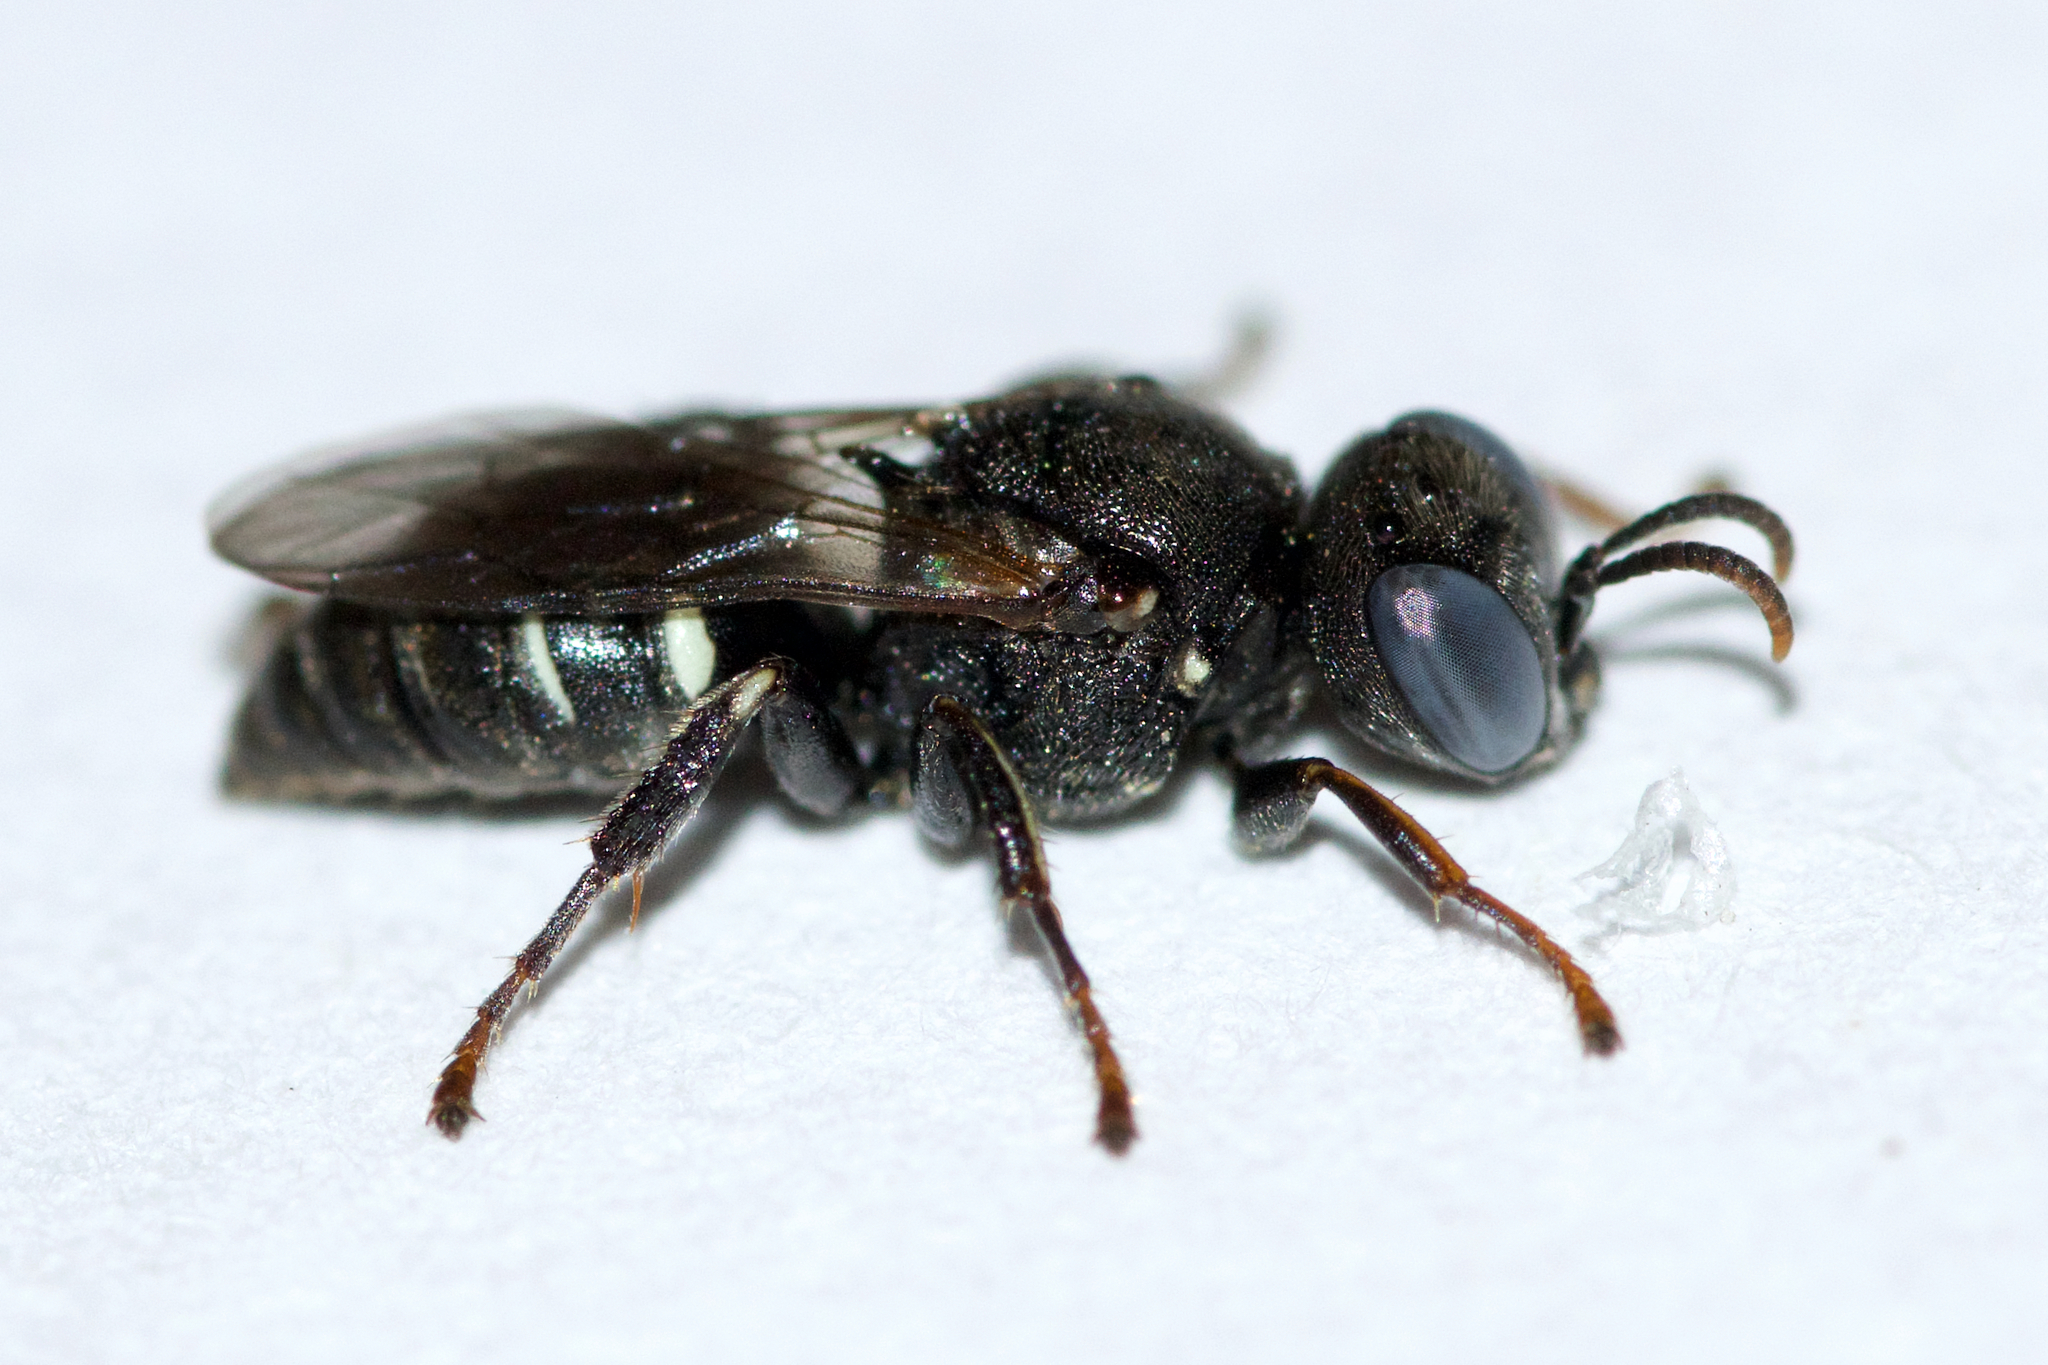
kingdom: Animalia
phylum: Arthropoda
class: Insecta
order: Hymenoptera
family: Crabronidae
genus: Oxybelus
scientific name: Oxybelus uniglumis
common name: Common spiny digger wasp
